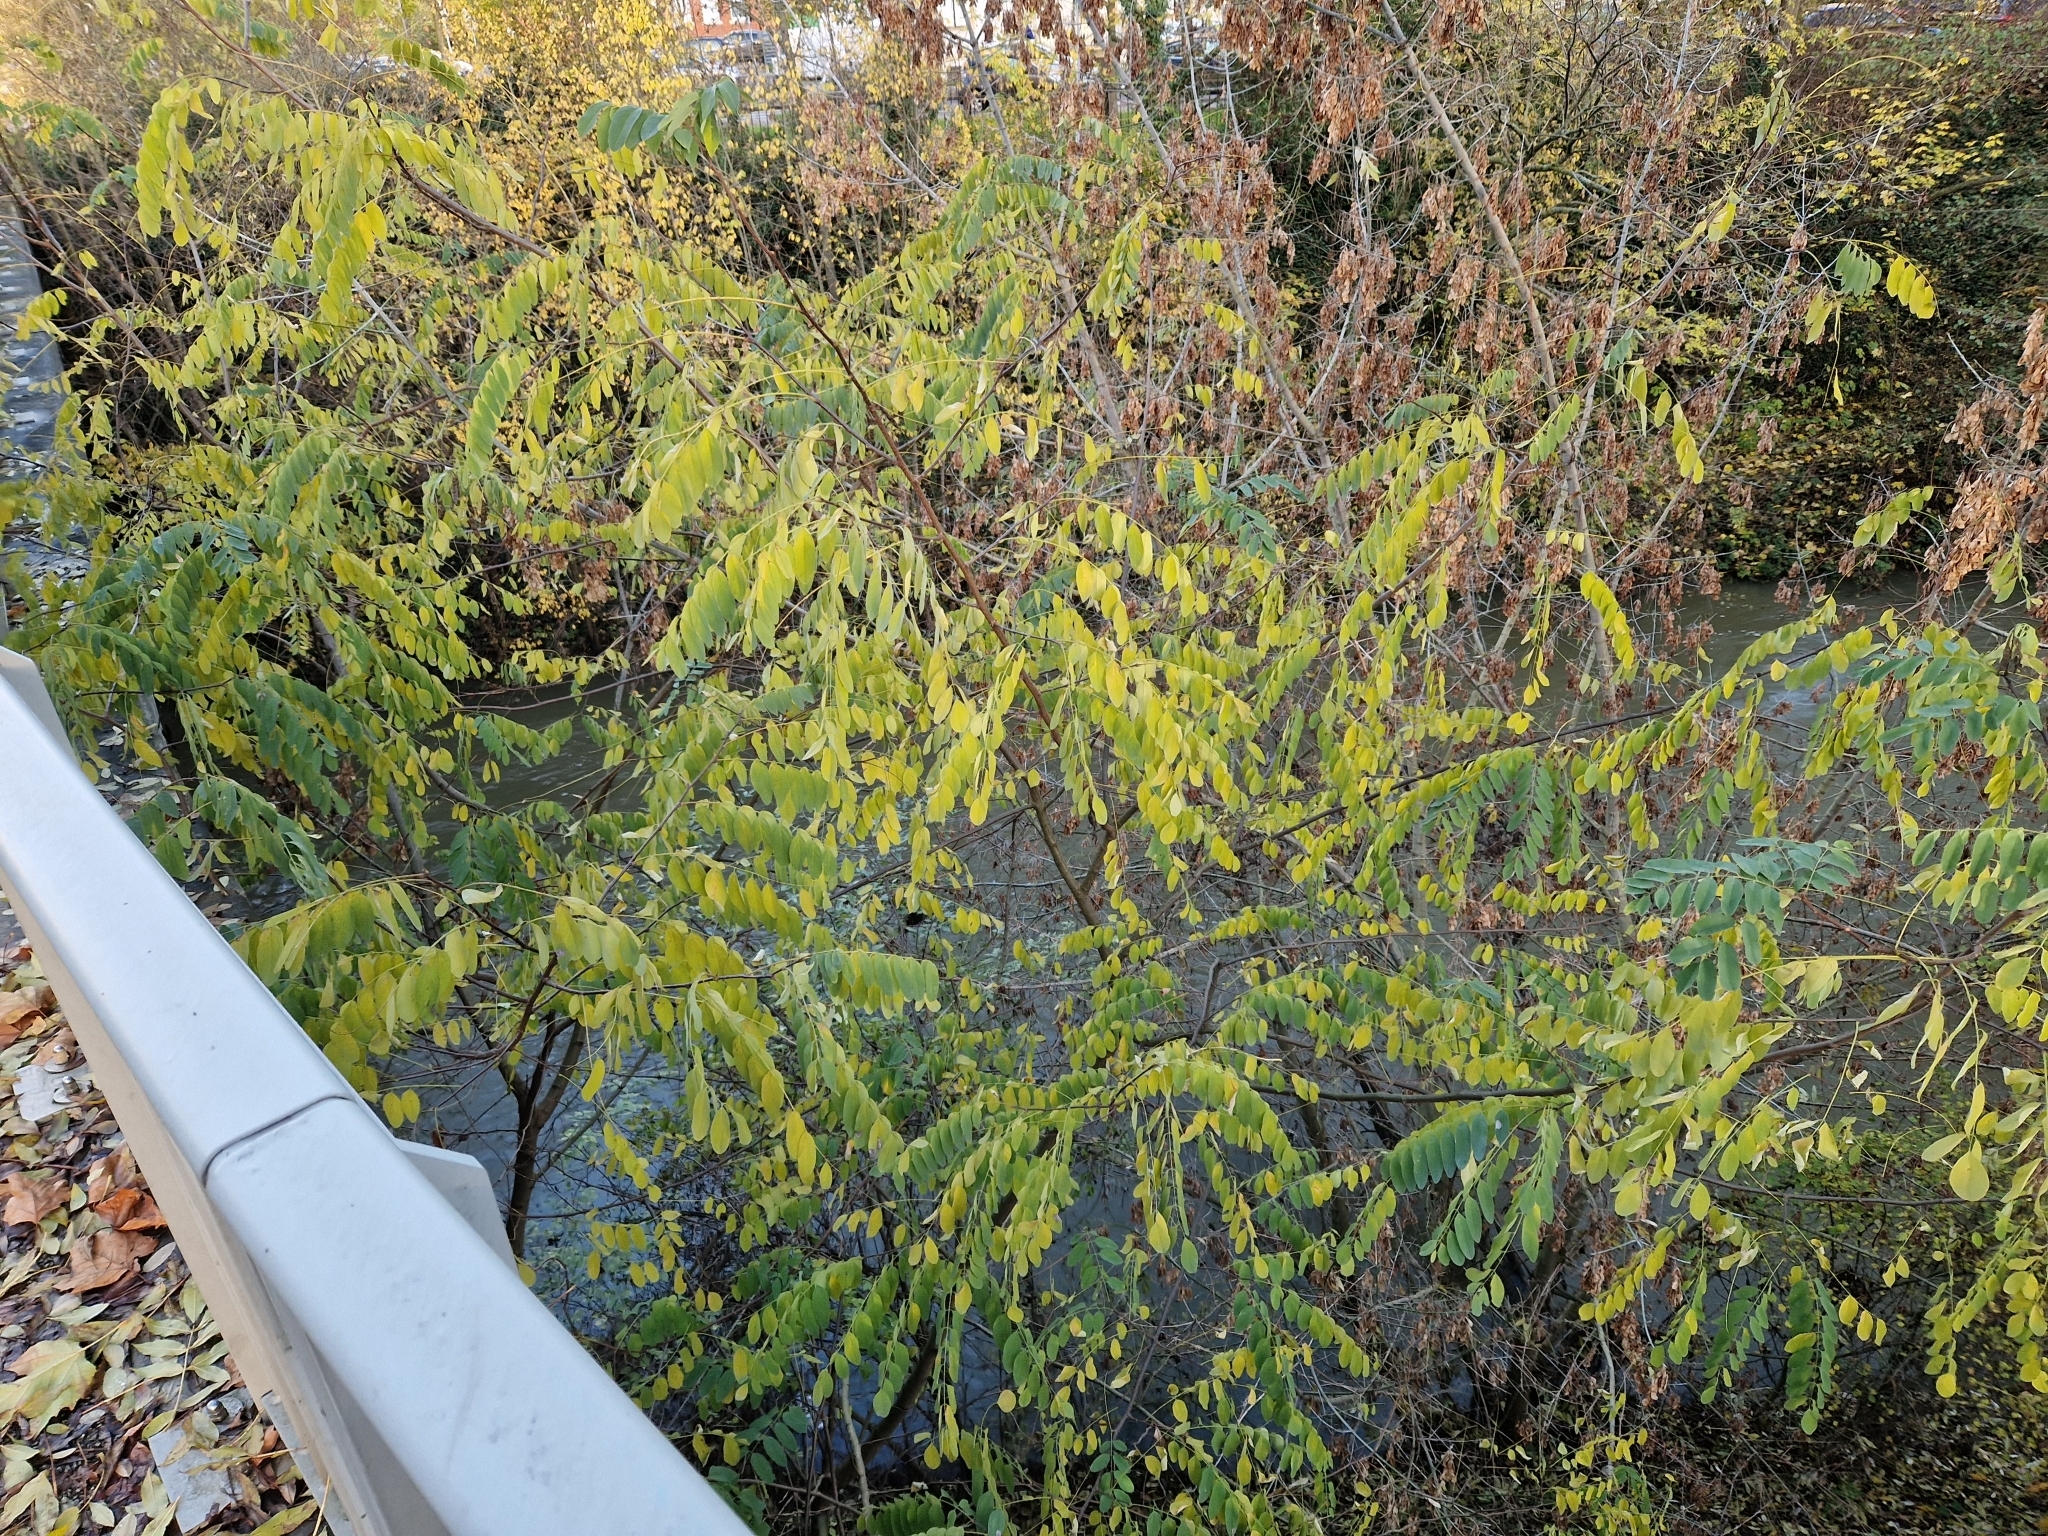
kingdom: Plantae
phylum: Tracheophyta
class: Magnoliopsida
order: Fabales
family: Fabaceae
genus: Robinia
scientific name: Robinia pseudoacacia
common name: Black locust
